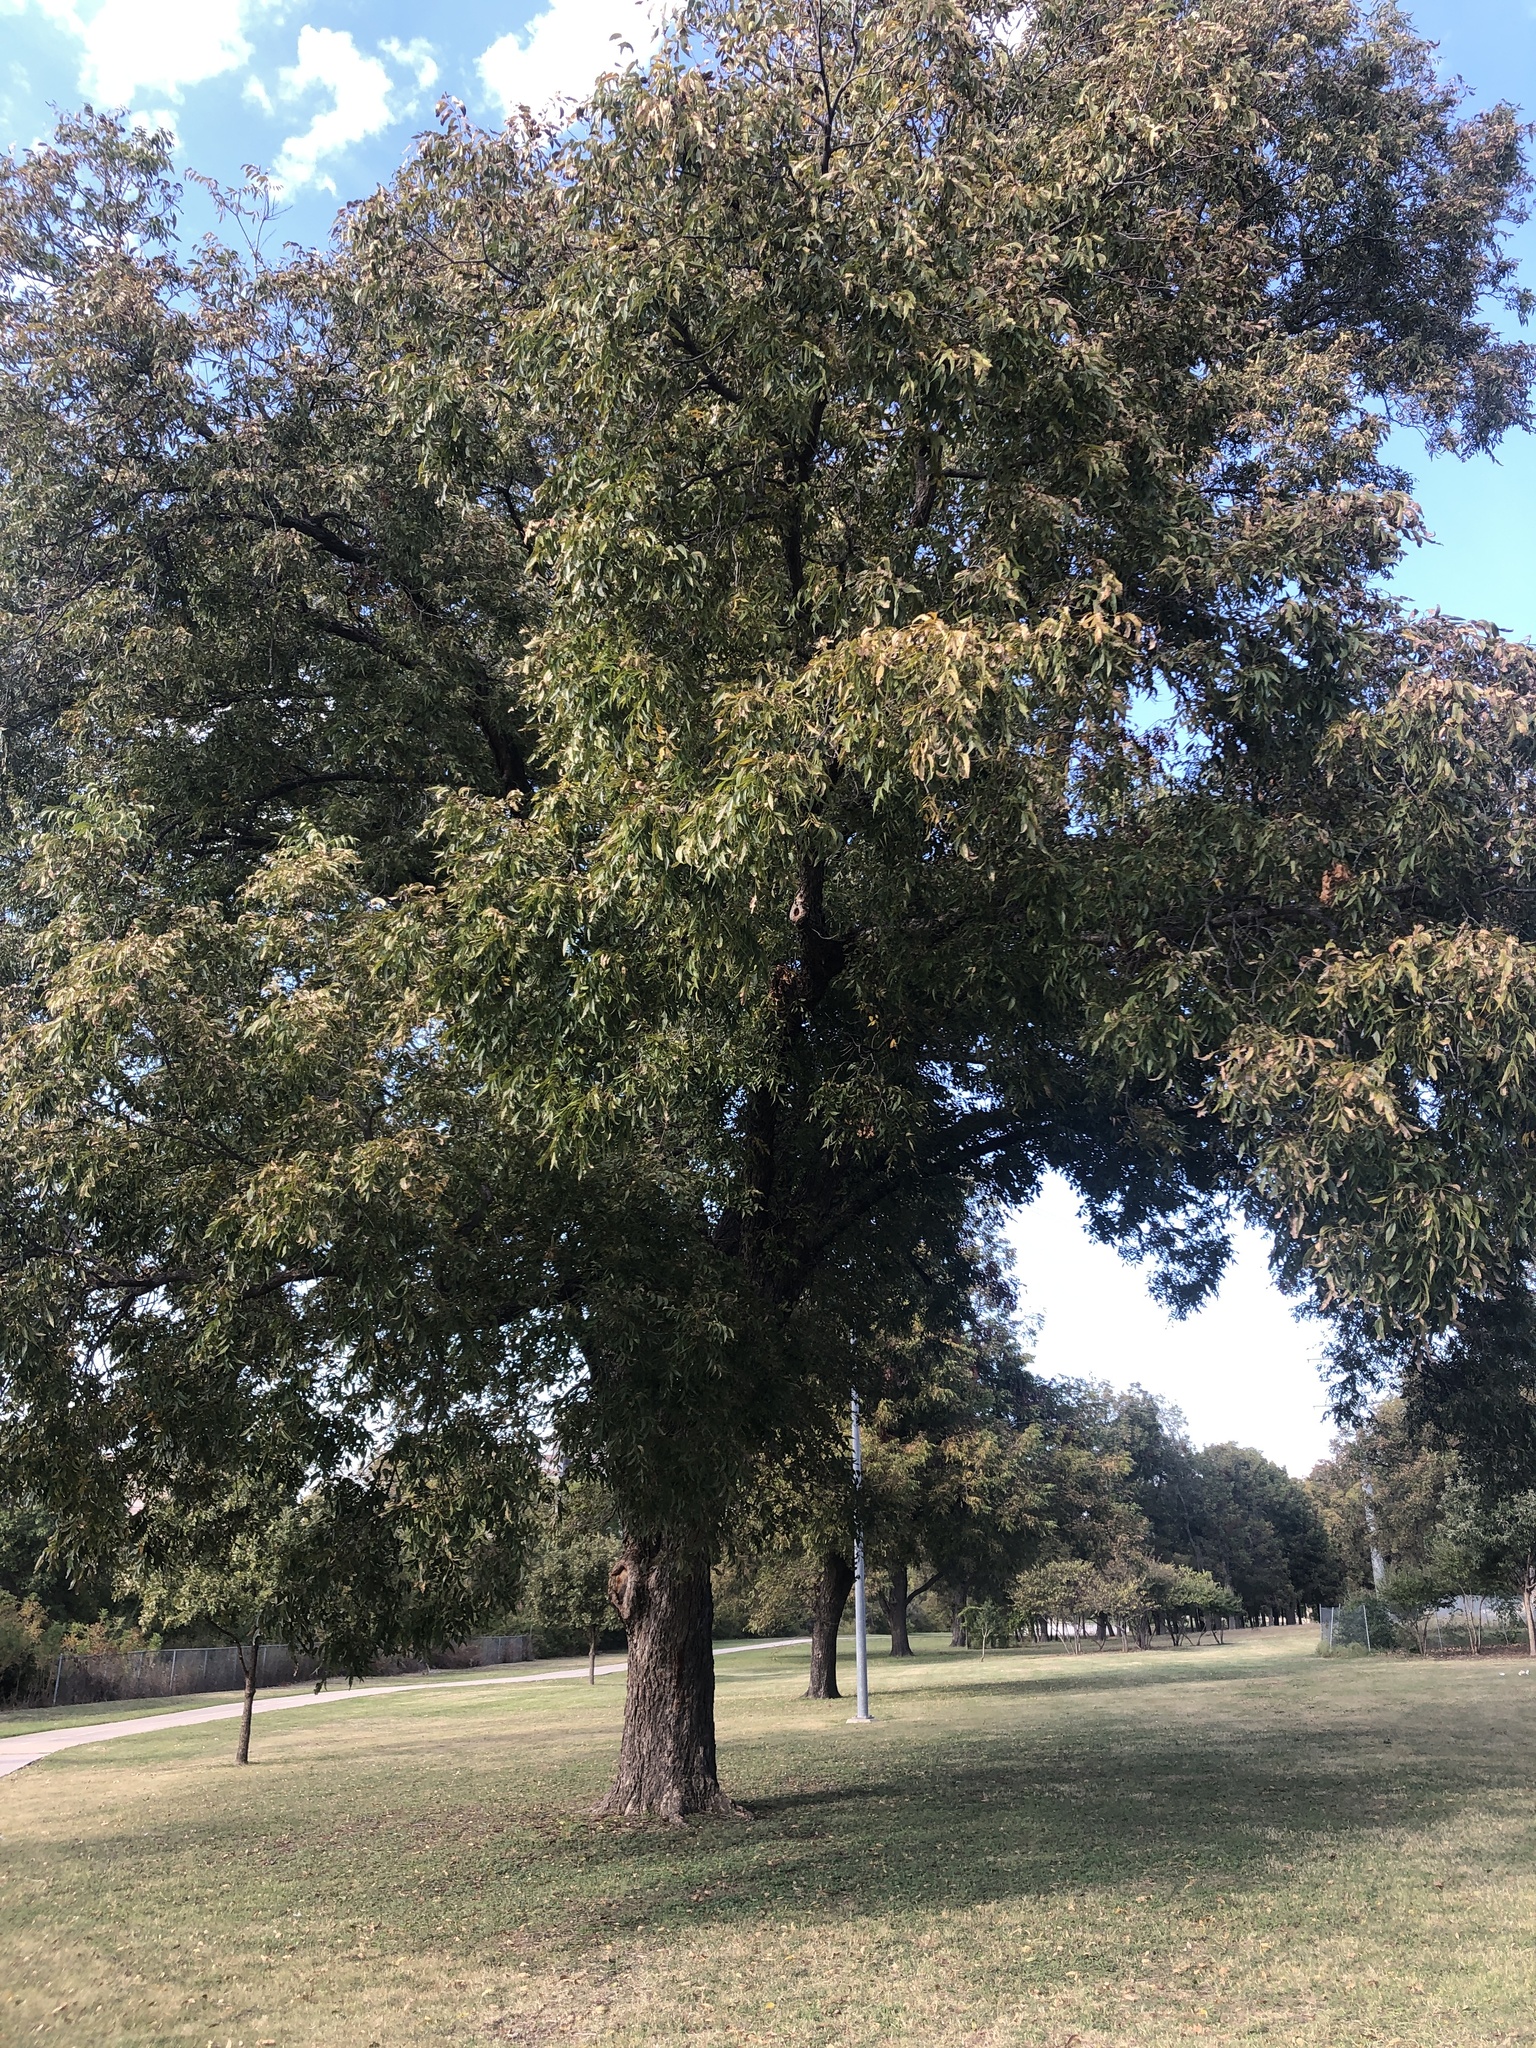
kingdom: Plantae
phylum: Tracheophyta
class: Magnoliopsida
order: Fagales
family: Juglandaceae
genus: Carya
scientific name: Carya illinoinensis
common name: Pecan
